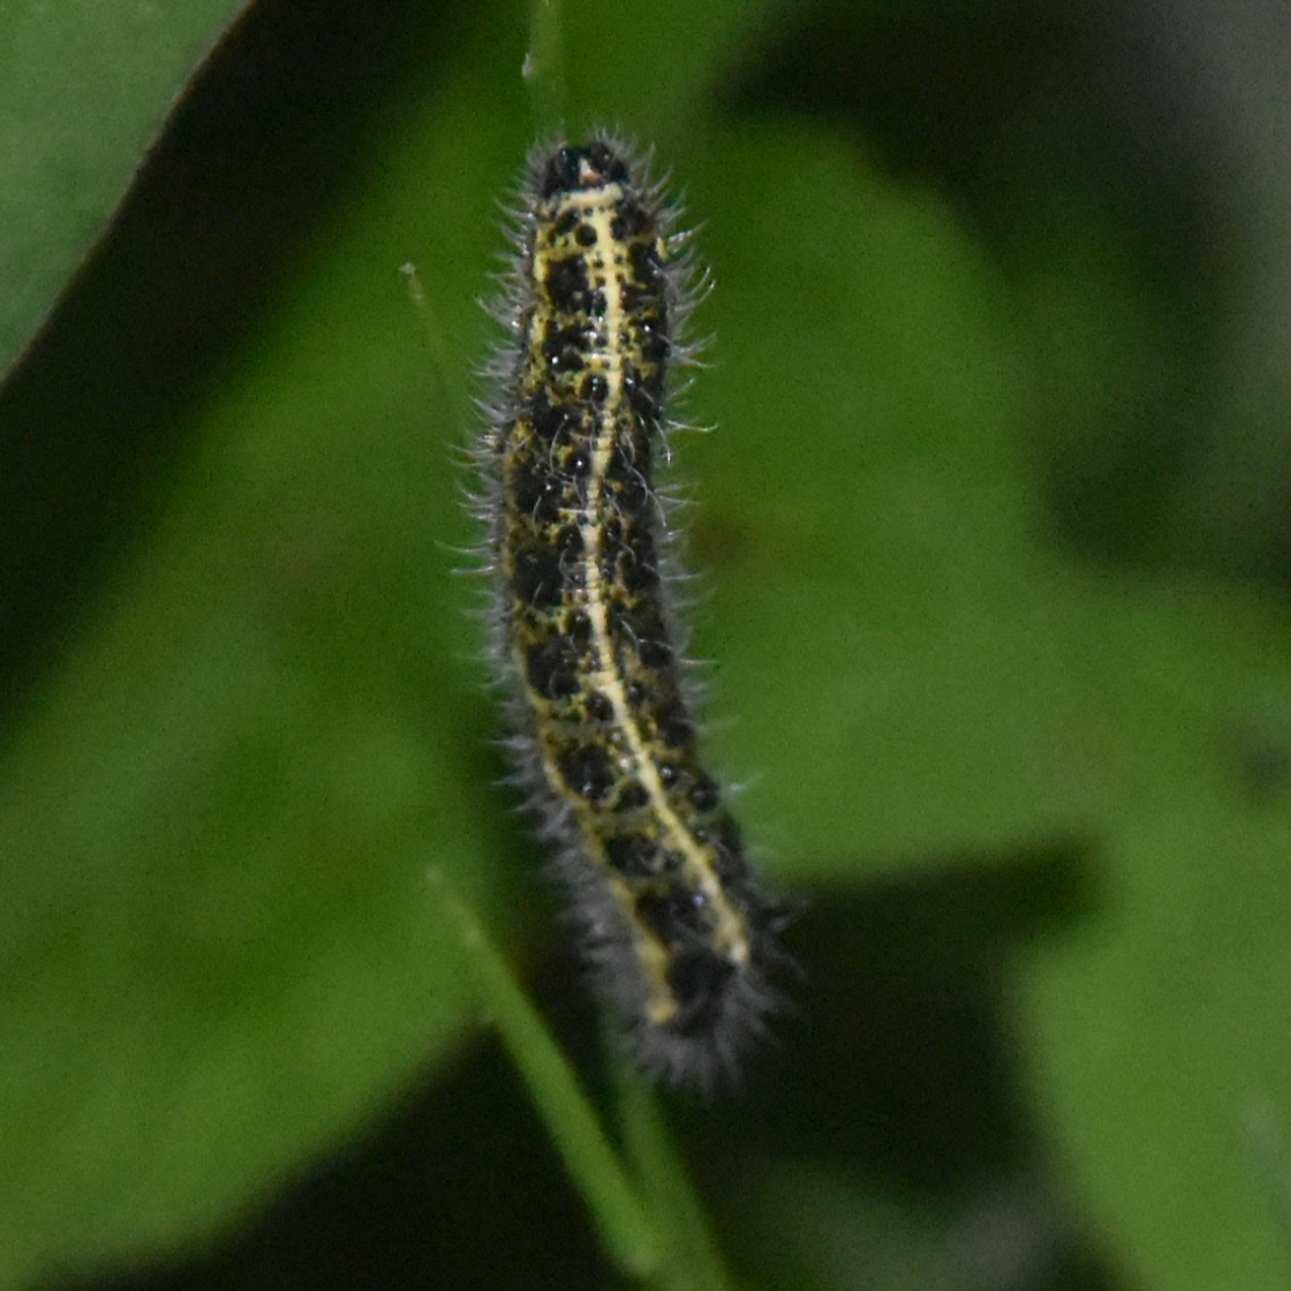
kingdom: Animalia
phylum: Arthropoda
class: Insecta
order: Lepidoptera
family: Pieridae
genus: Pieris
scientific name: Pieris brassicae
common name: Large white
